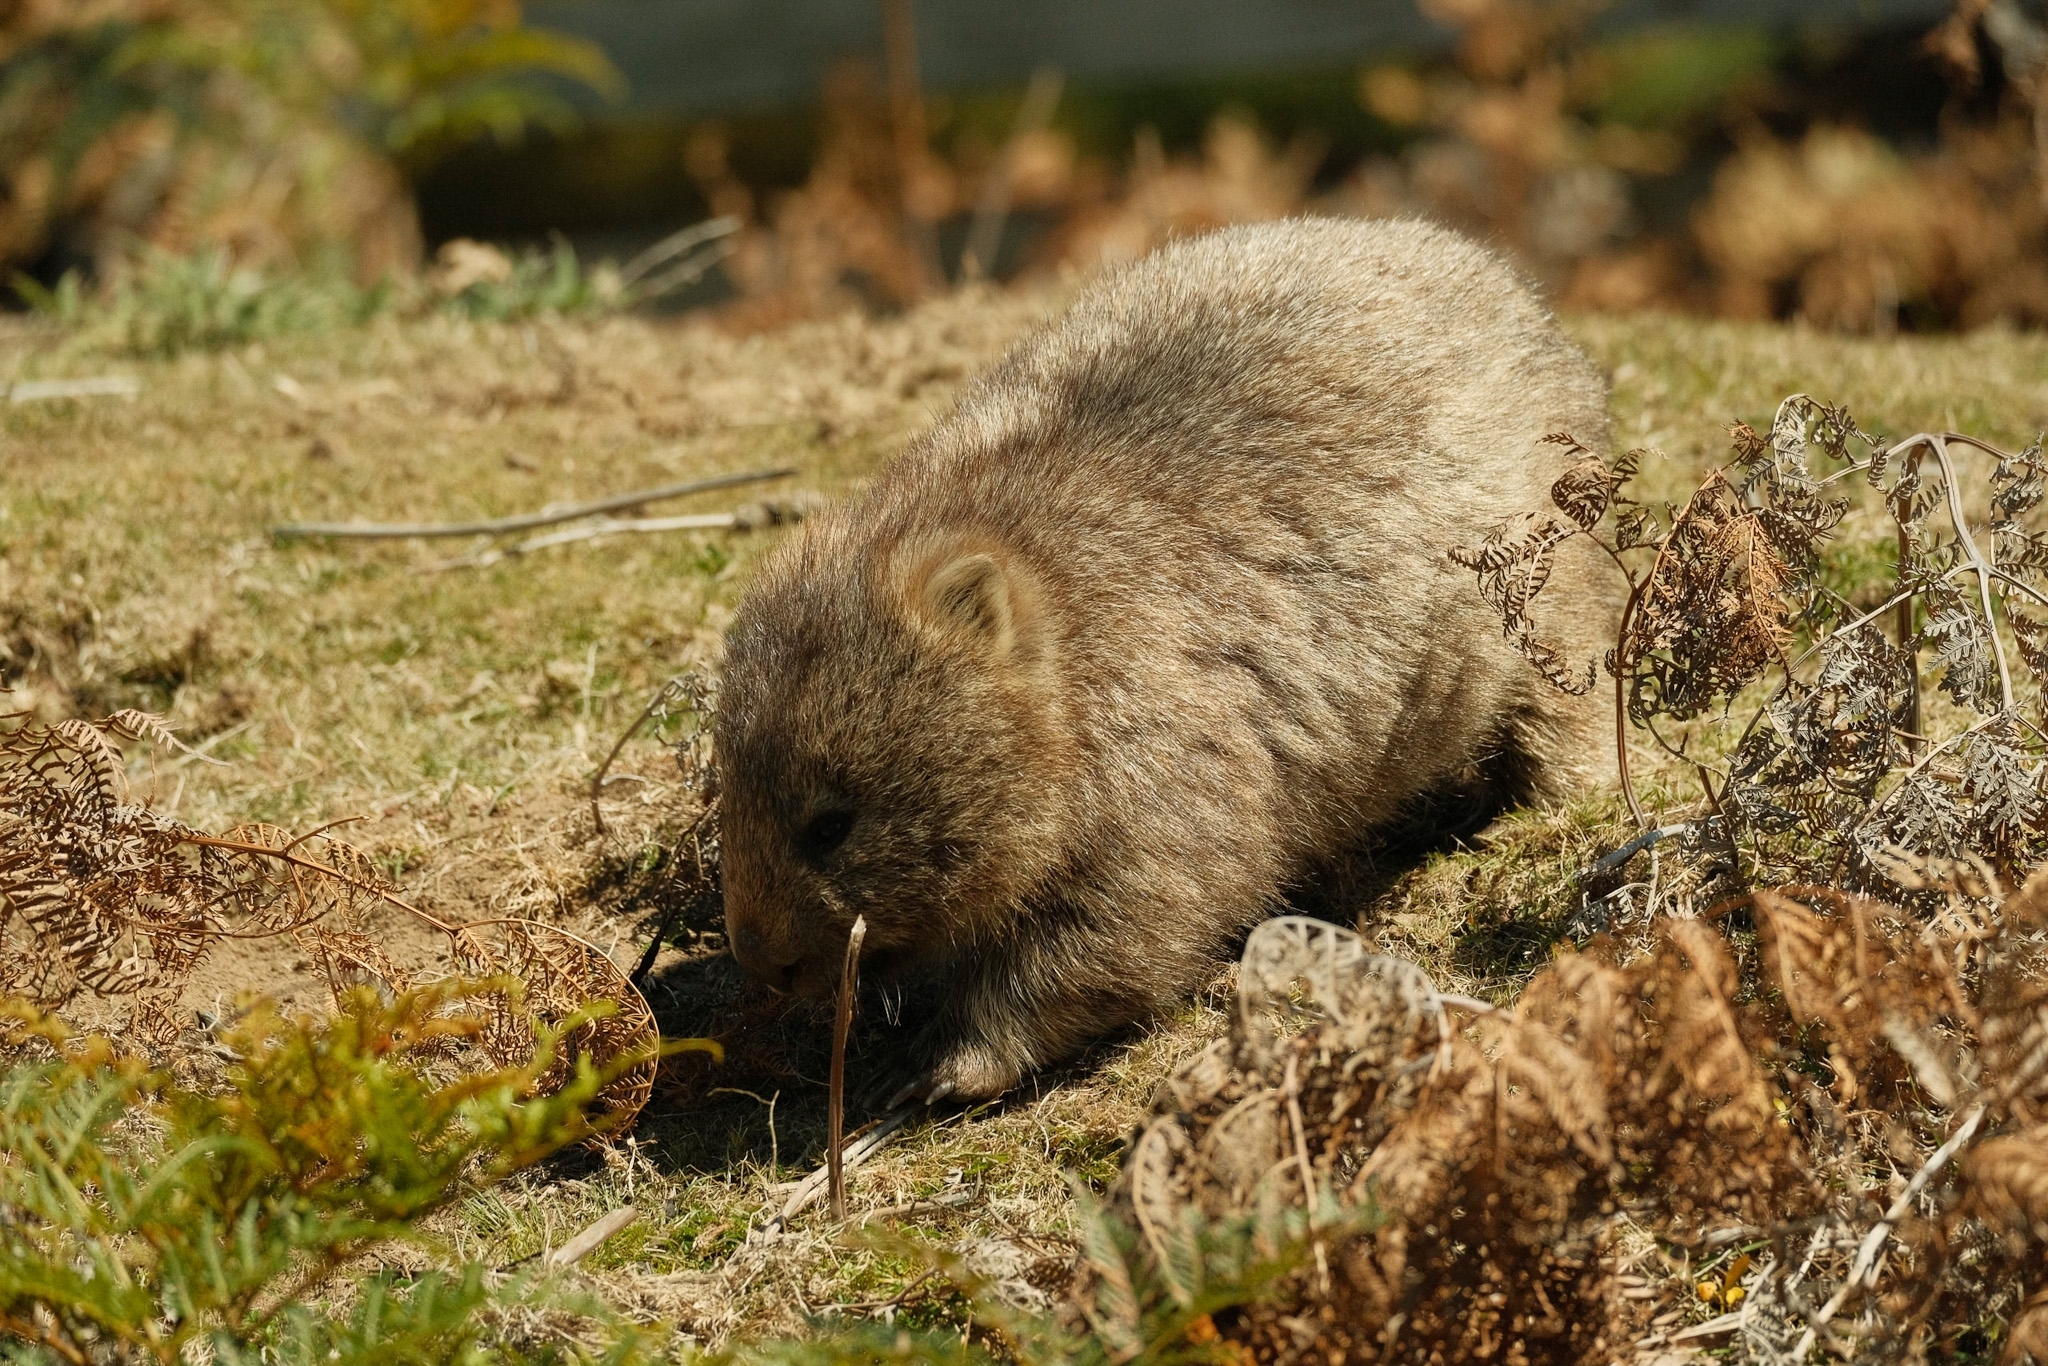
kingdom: Animalia
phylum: Chordata
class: Mammalia
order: Diprotodontia
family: Vombatidae
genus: Vombatus
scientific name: Vombatus ursinus
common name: Common wombat
